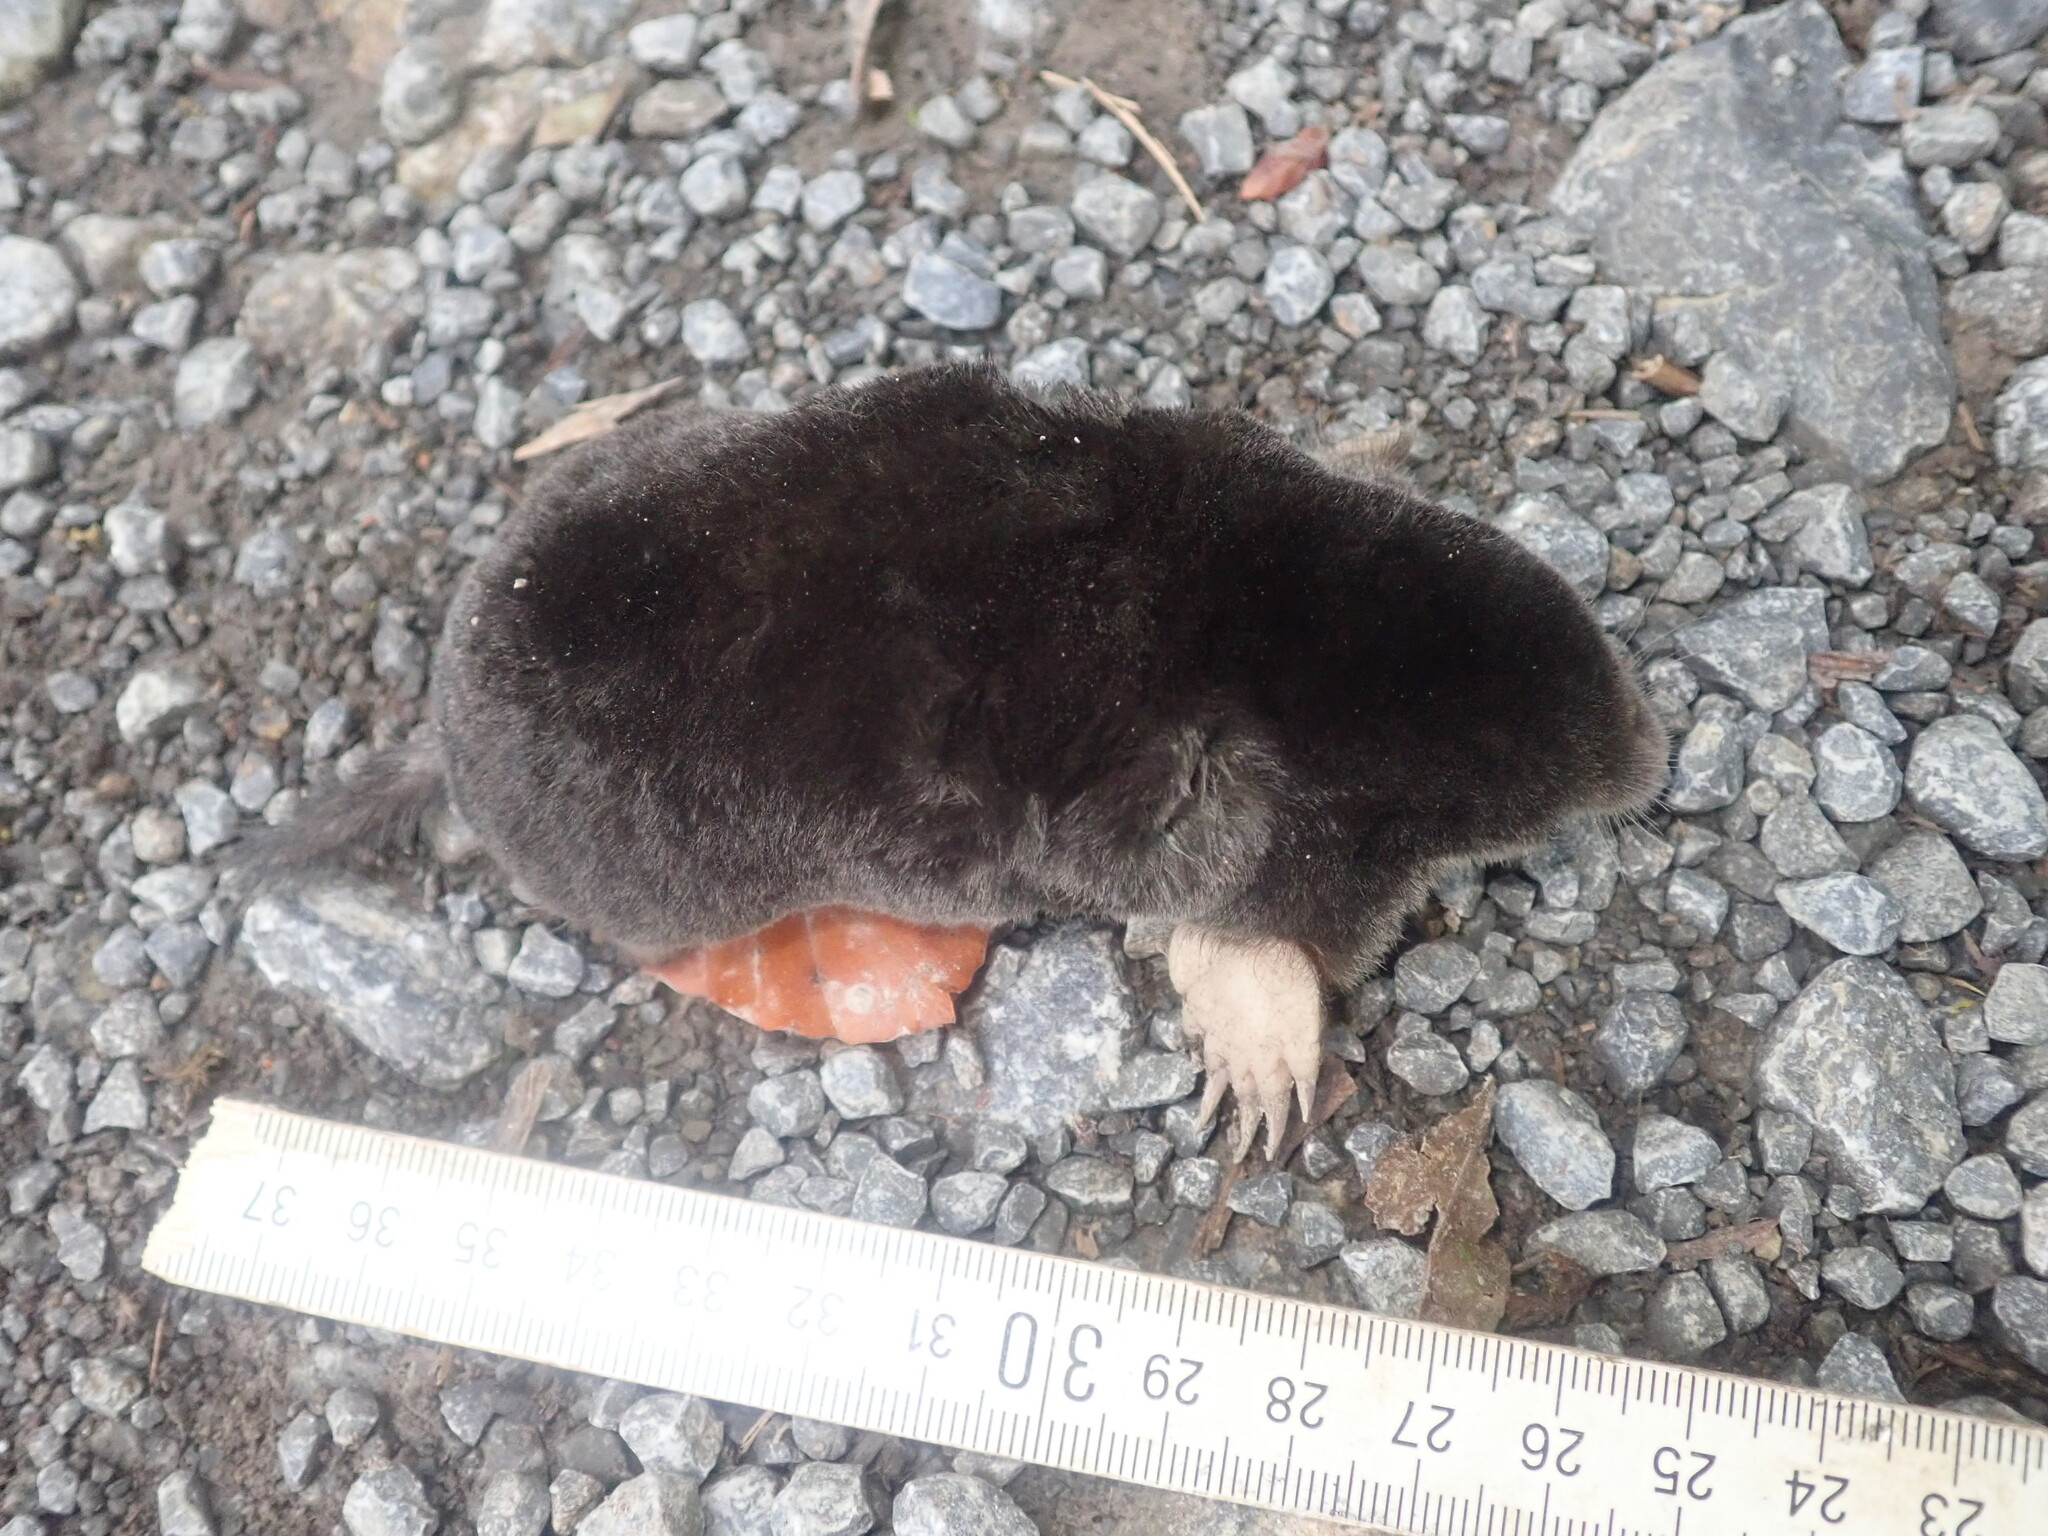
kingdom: Animalia
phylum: Chordata
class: Mammalia
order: Soricomorpha
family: Talpidae
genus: Talpa
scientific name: Talpa europaea
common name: European mole
